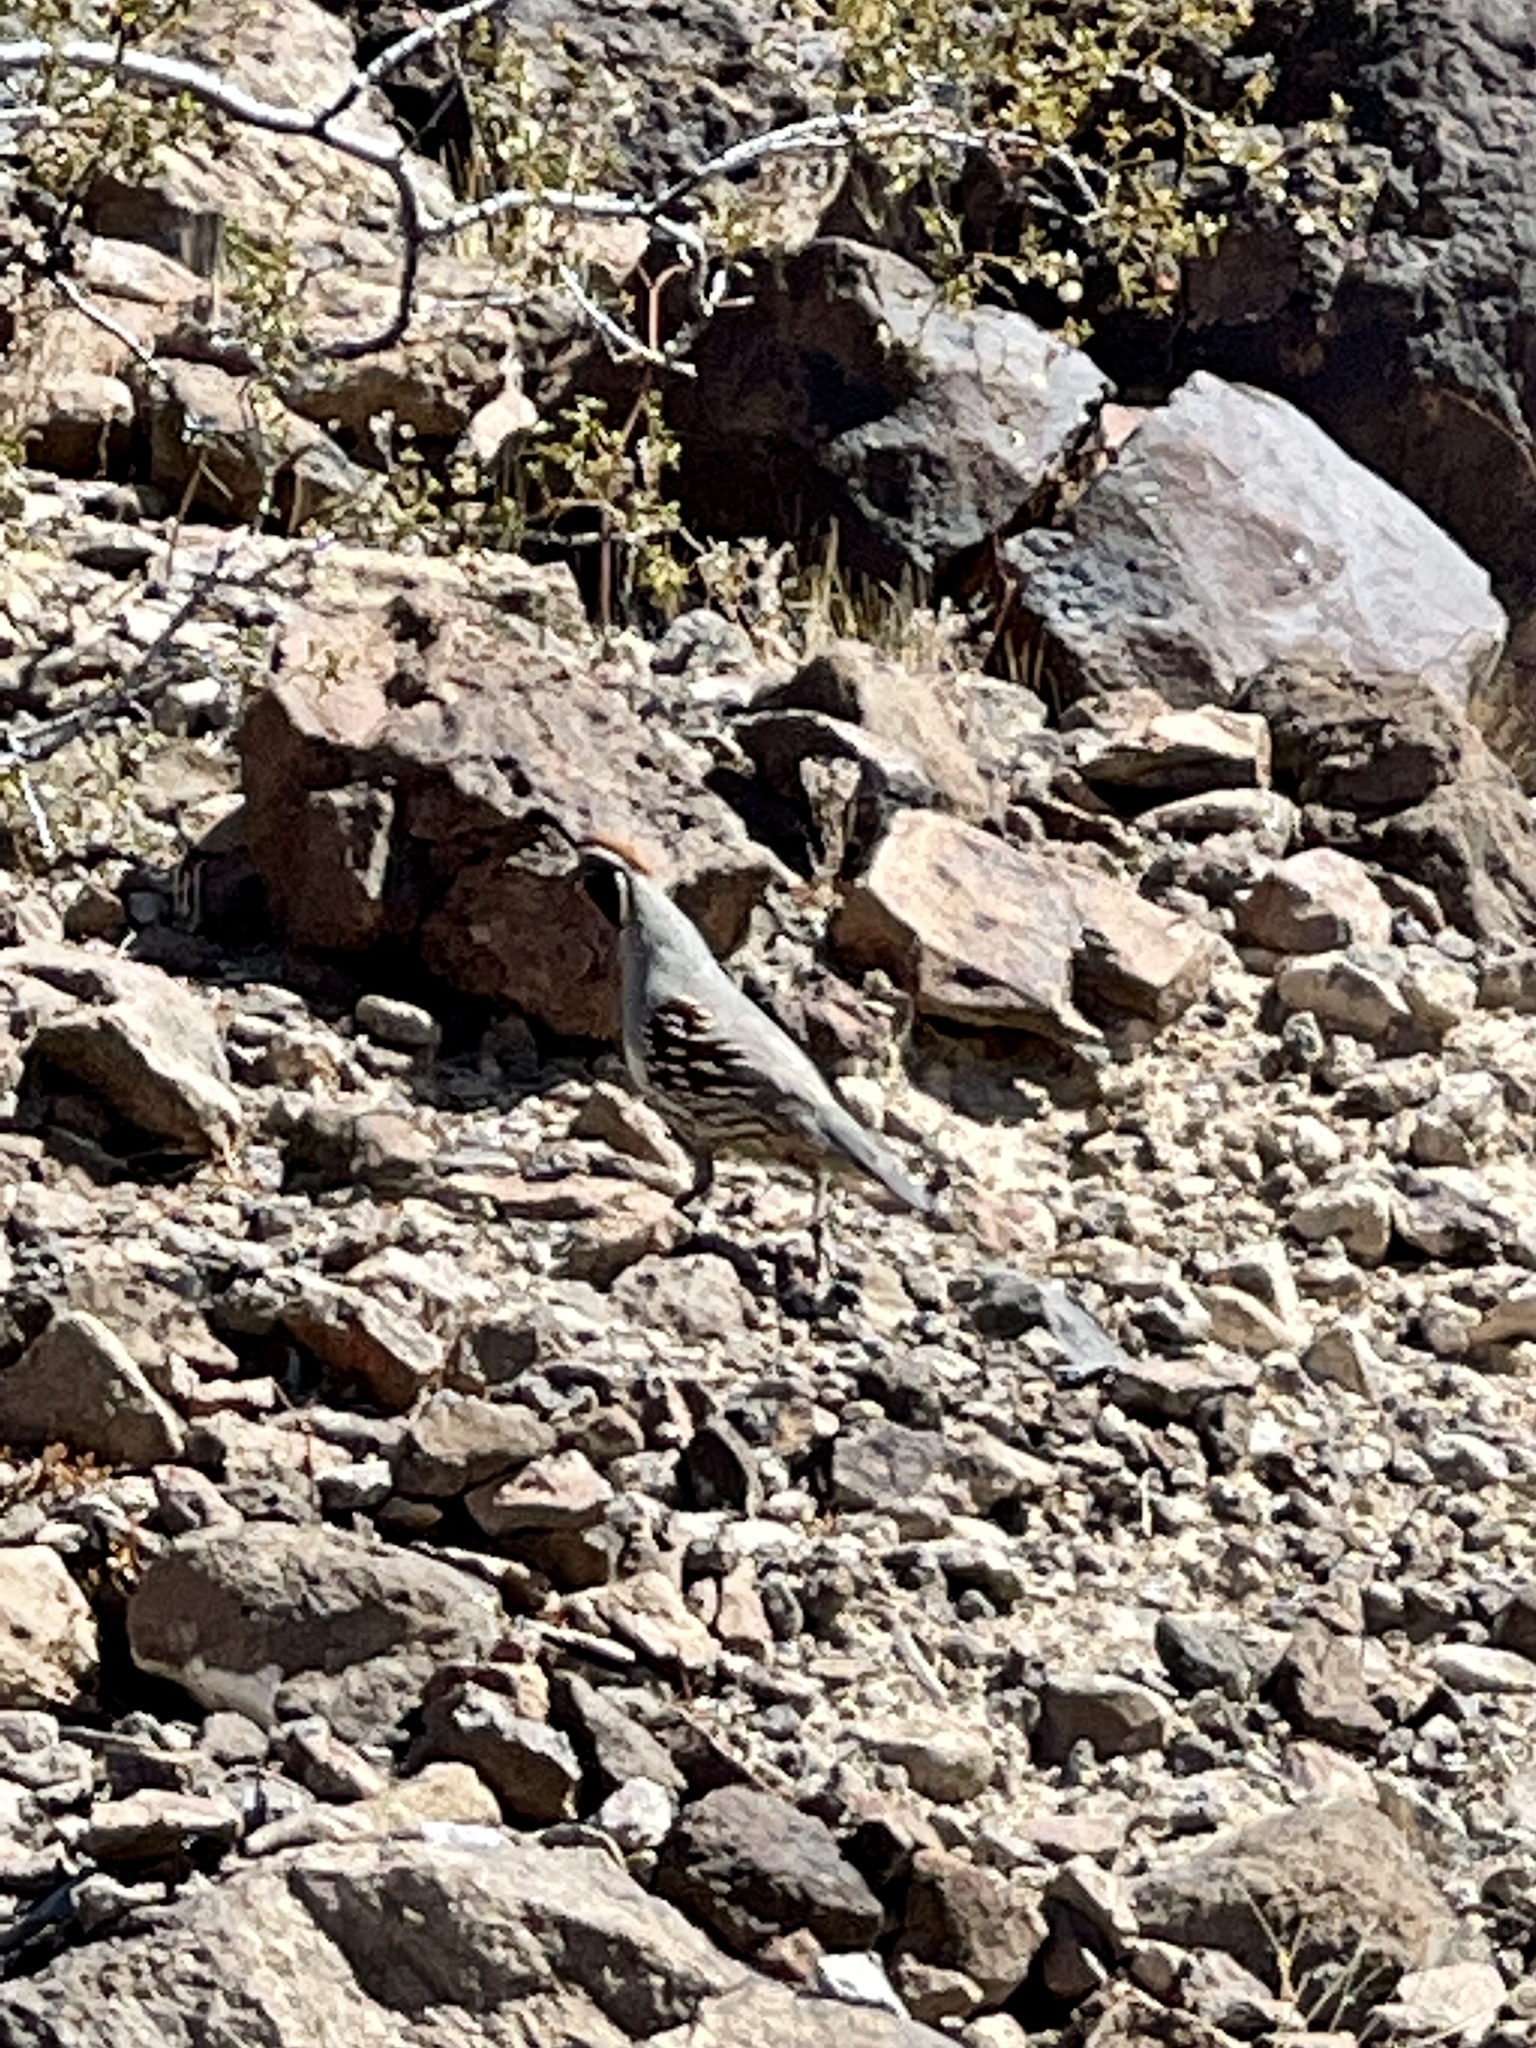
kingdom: Animalia
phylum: Chordata
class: Aves
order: Galliformes
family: Odontophoridae
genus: Callipepla
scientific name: Callipepla gambelii
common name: Gambel's quail
